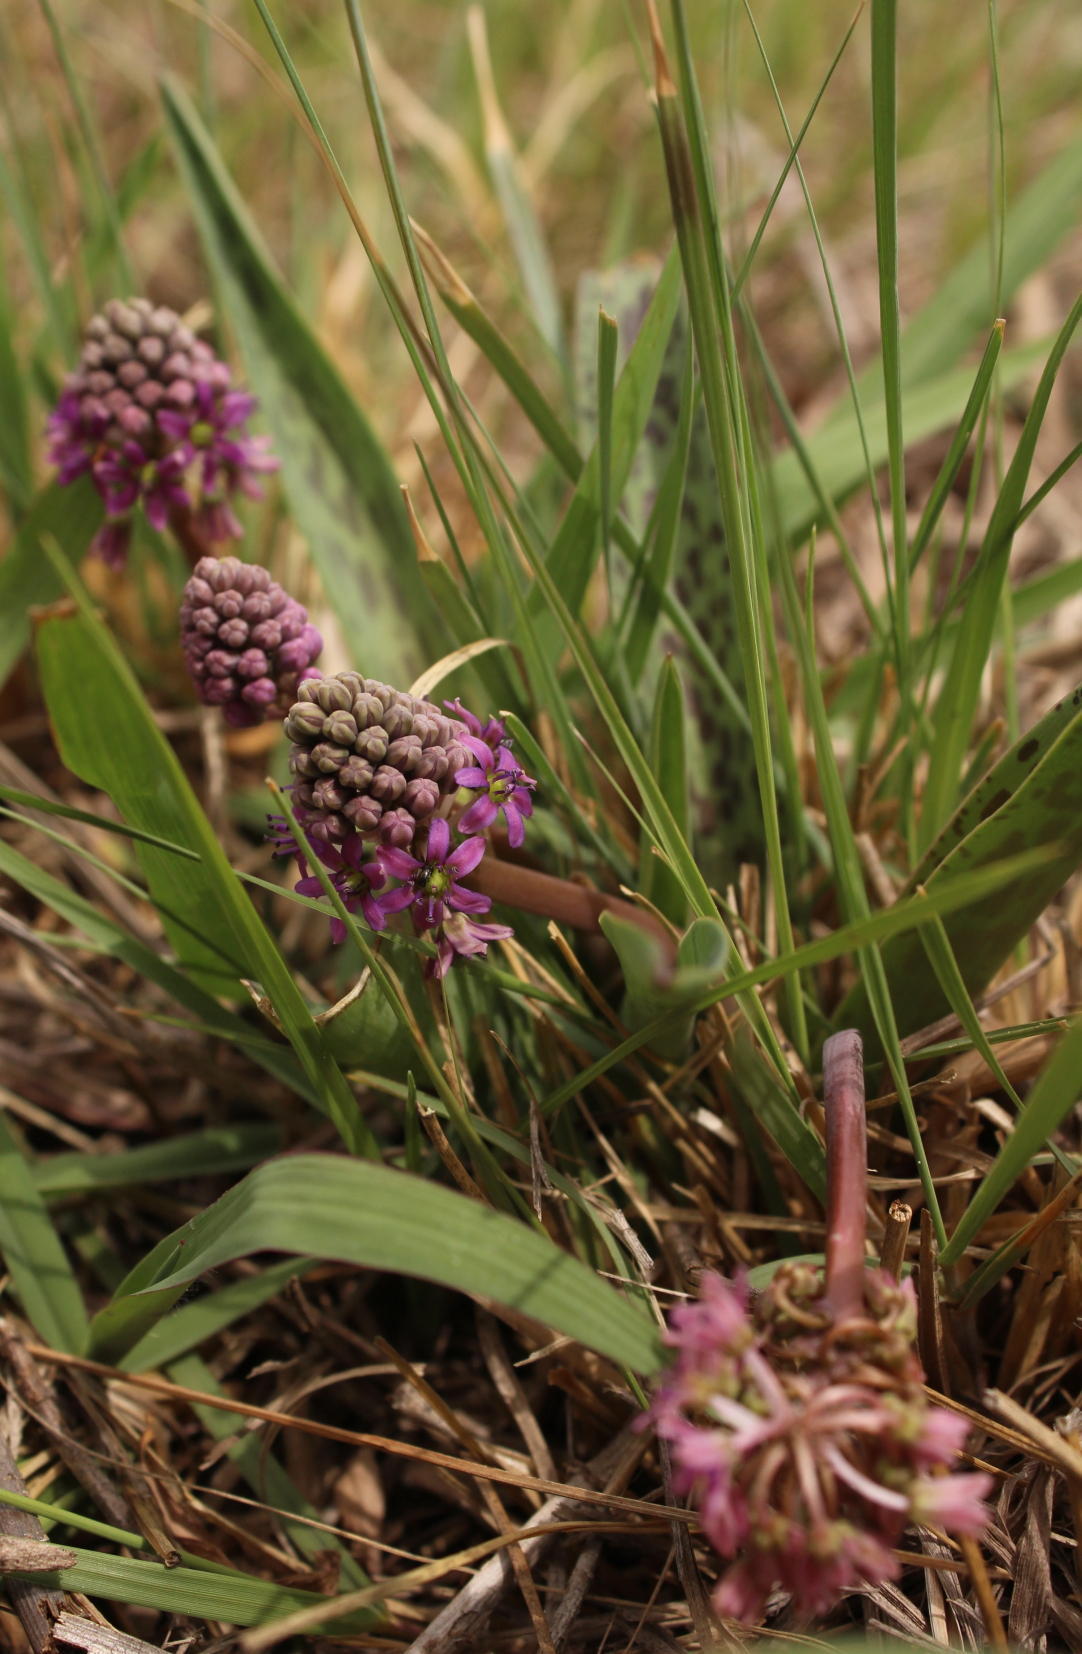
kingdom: Plantae
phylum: Tracheophyta
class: Liliopsida
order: Asparagales
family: Asparagaceae
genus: Ledebouria
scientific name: Ledebouria cooperi
